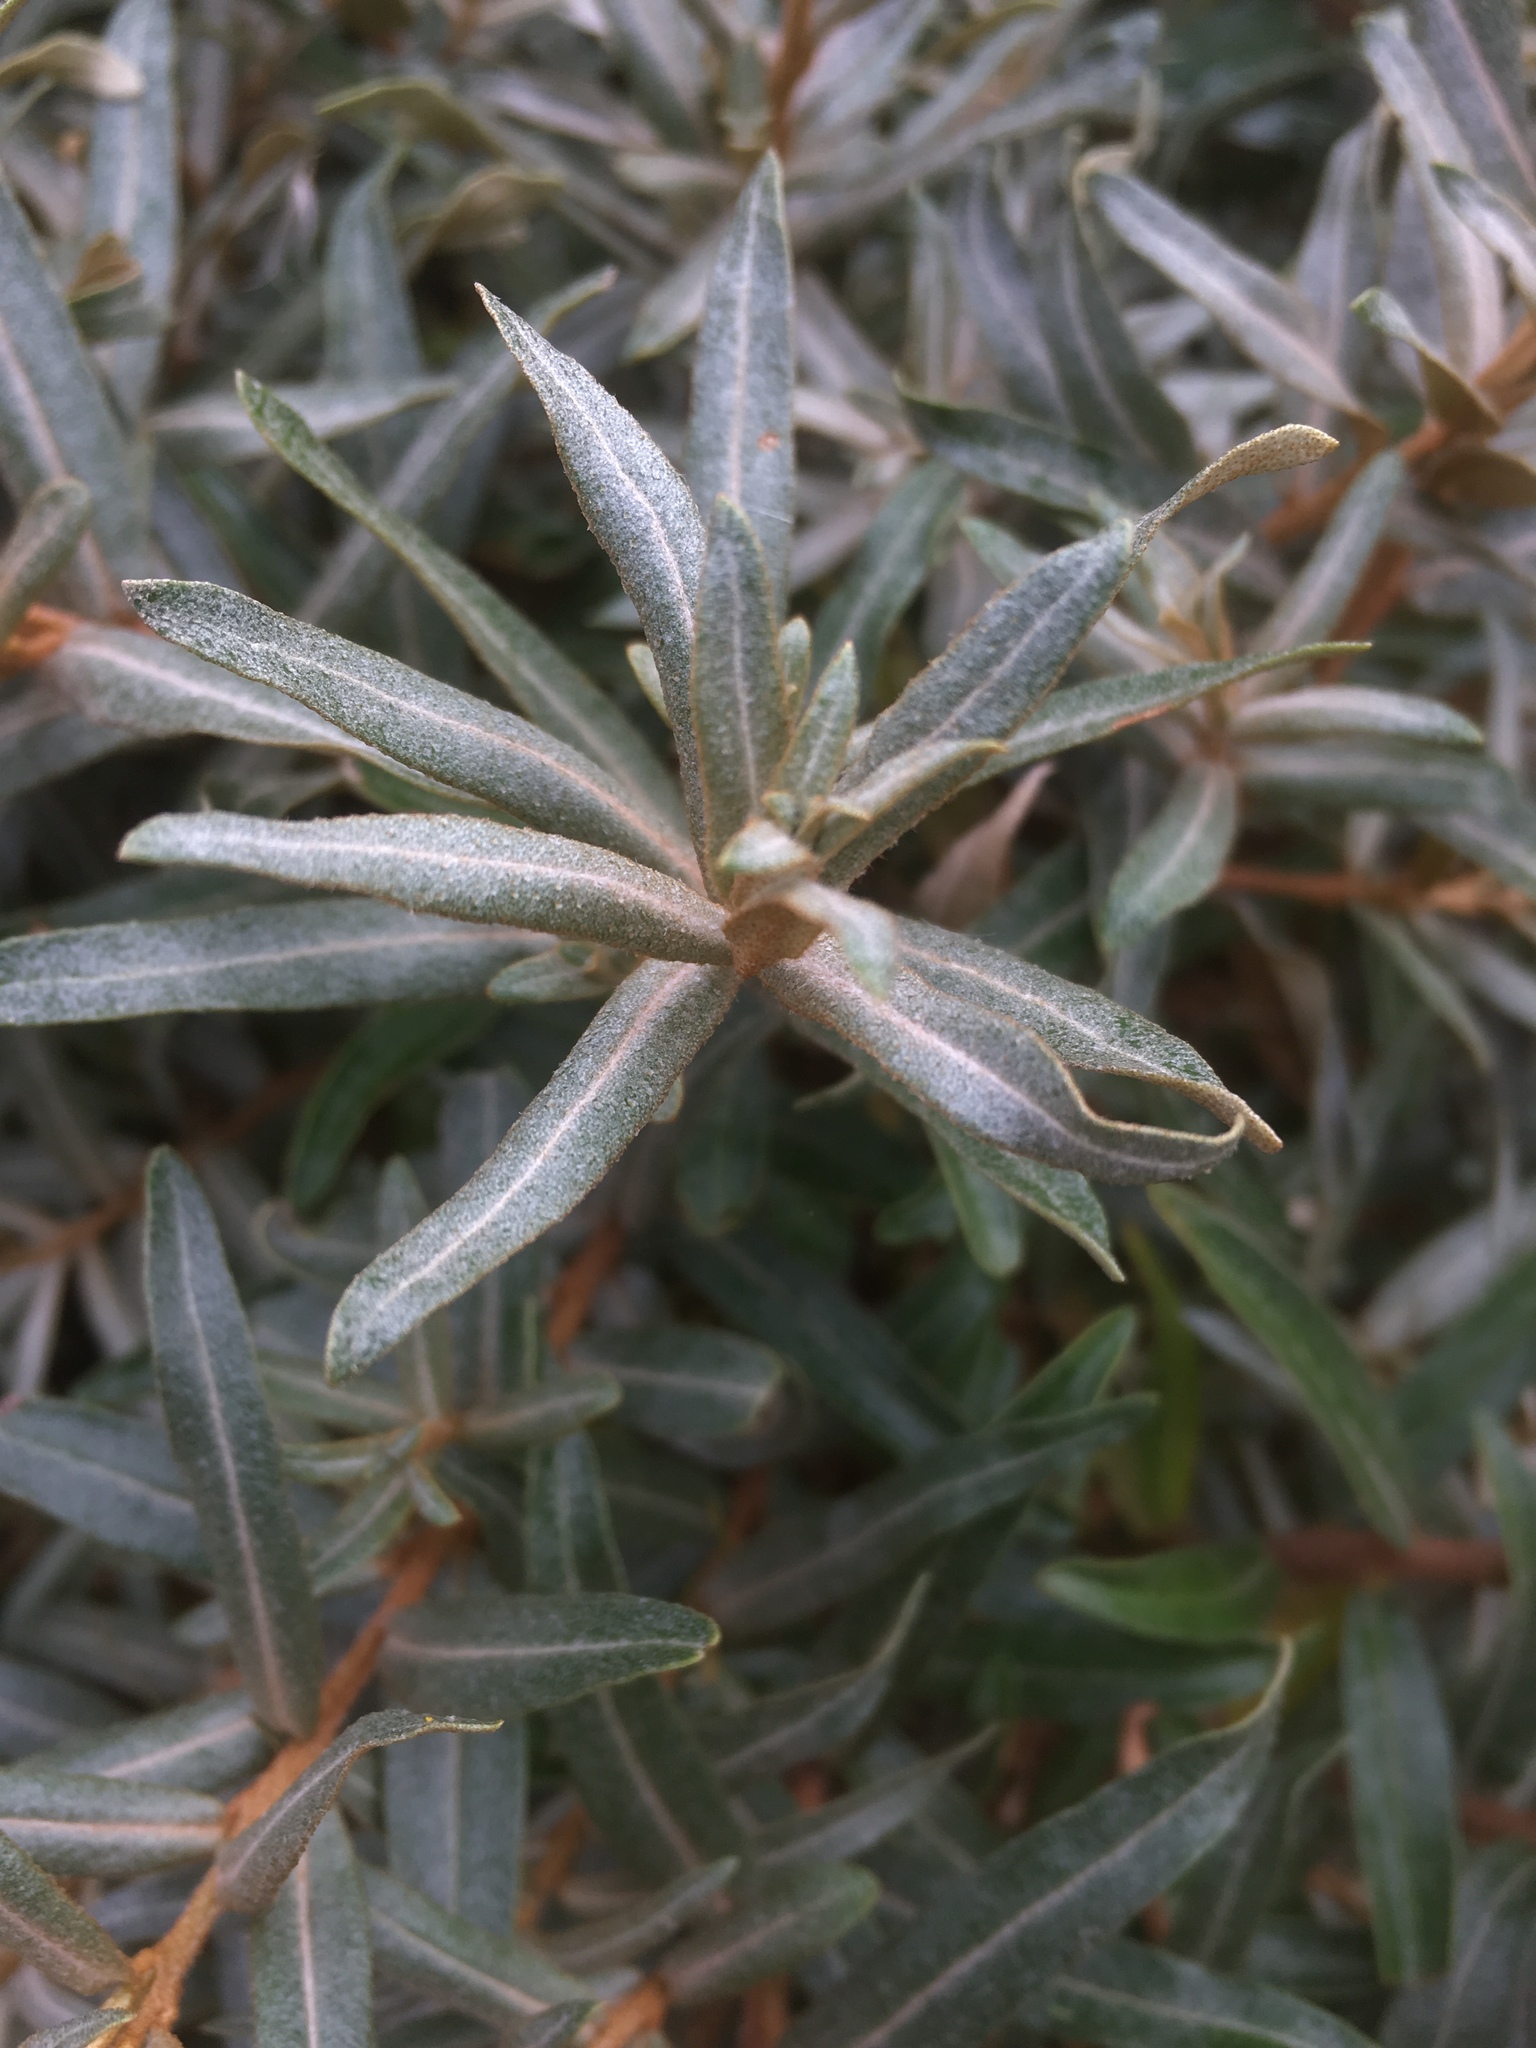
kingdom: Plantae
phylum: Tracheophyta
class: Magnoliopsida
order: Rosales
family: Elaeagnaceae
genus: Hippophae
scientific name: Hippophae rhamnoides
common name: Sea-buckthorn
